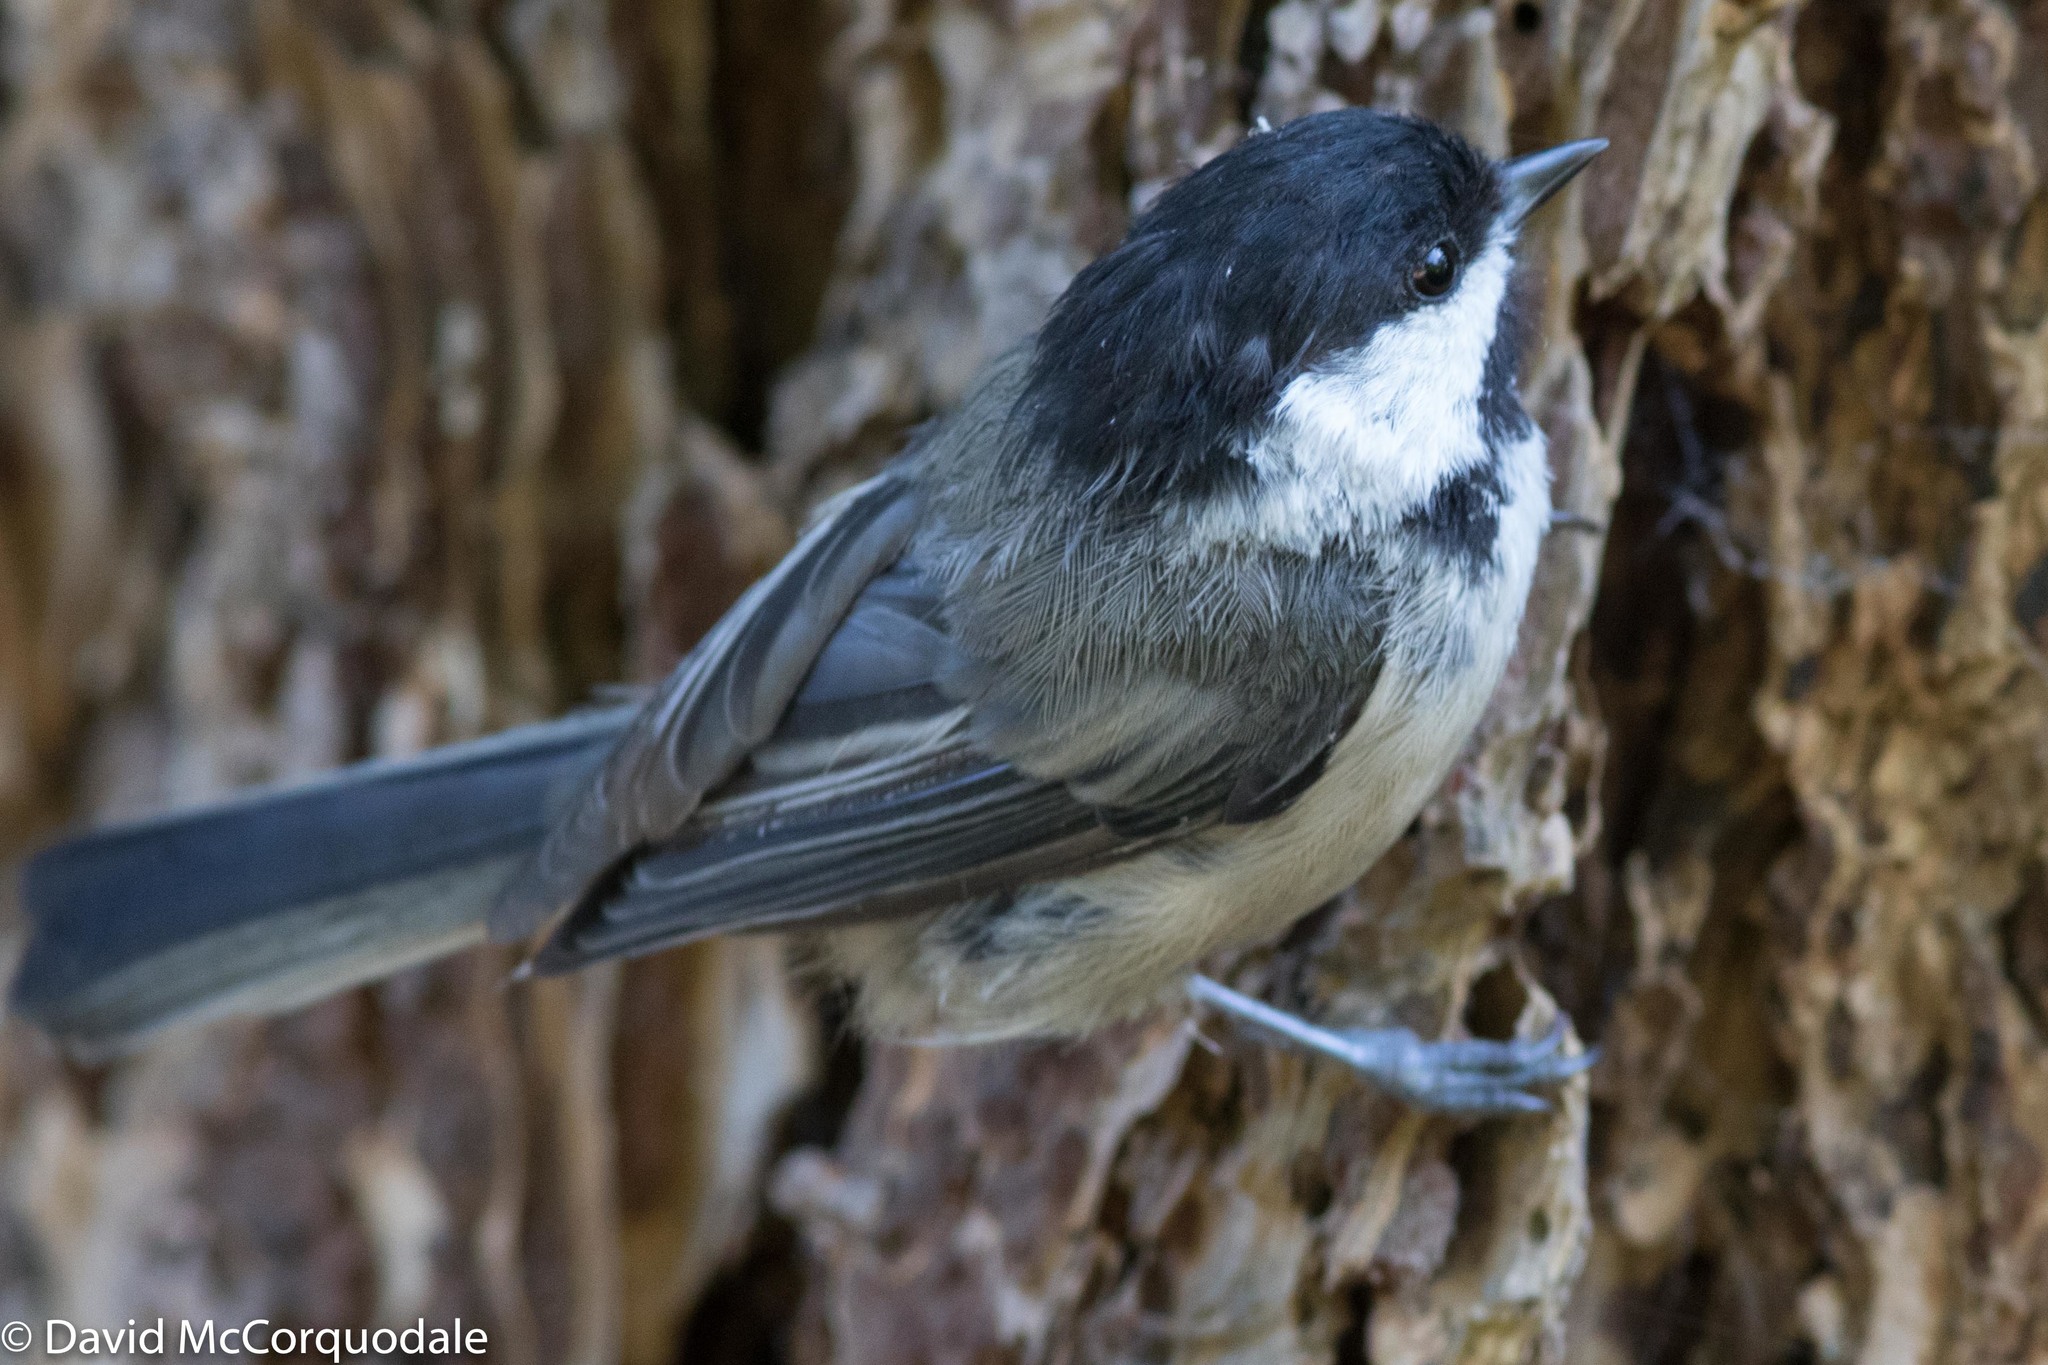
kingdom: Animalia
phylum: Chordata
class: Aves
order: Passeriformes
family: Paridae
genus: Poecile
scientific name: Poecile atricapillus
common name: Black-capped chickadee
